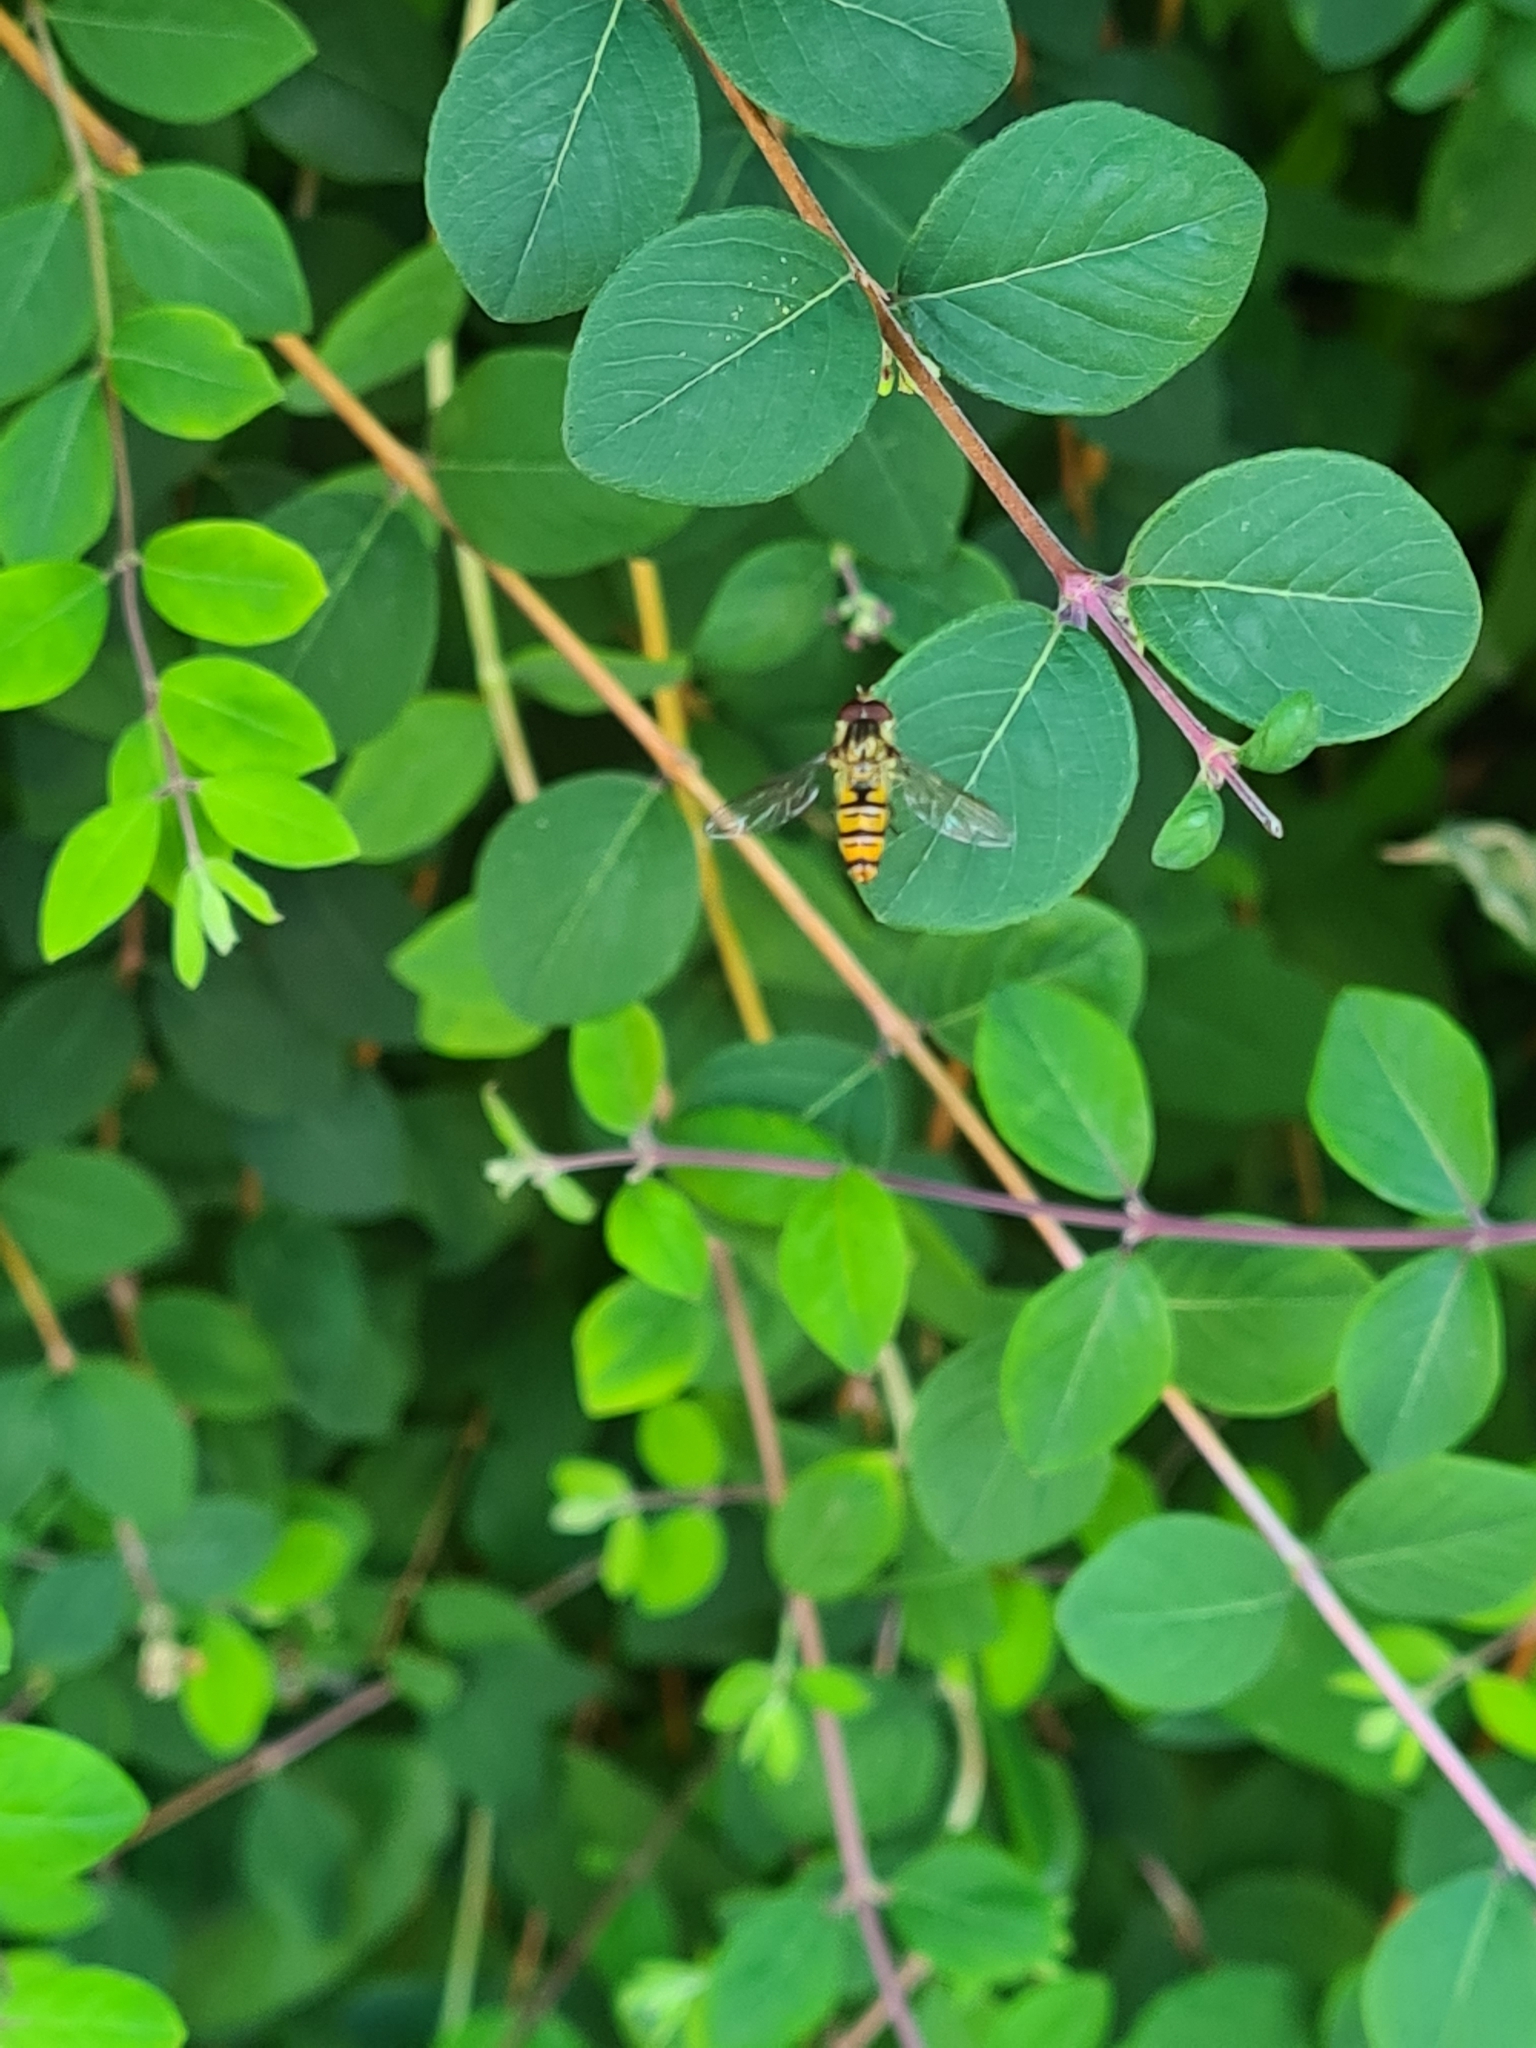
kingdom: Animalia
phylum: Arthropoda
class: Insecta
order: Diptera
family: Syrphidae
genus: Episyrphus
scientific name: Episyrphus balteatus
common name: Marmalade hoverfly
